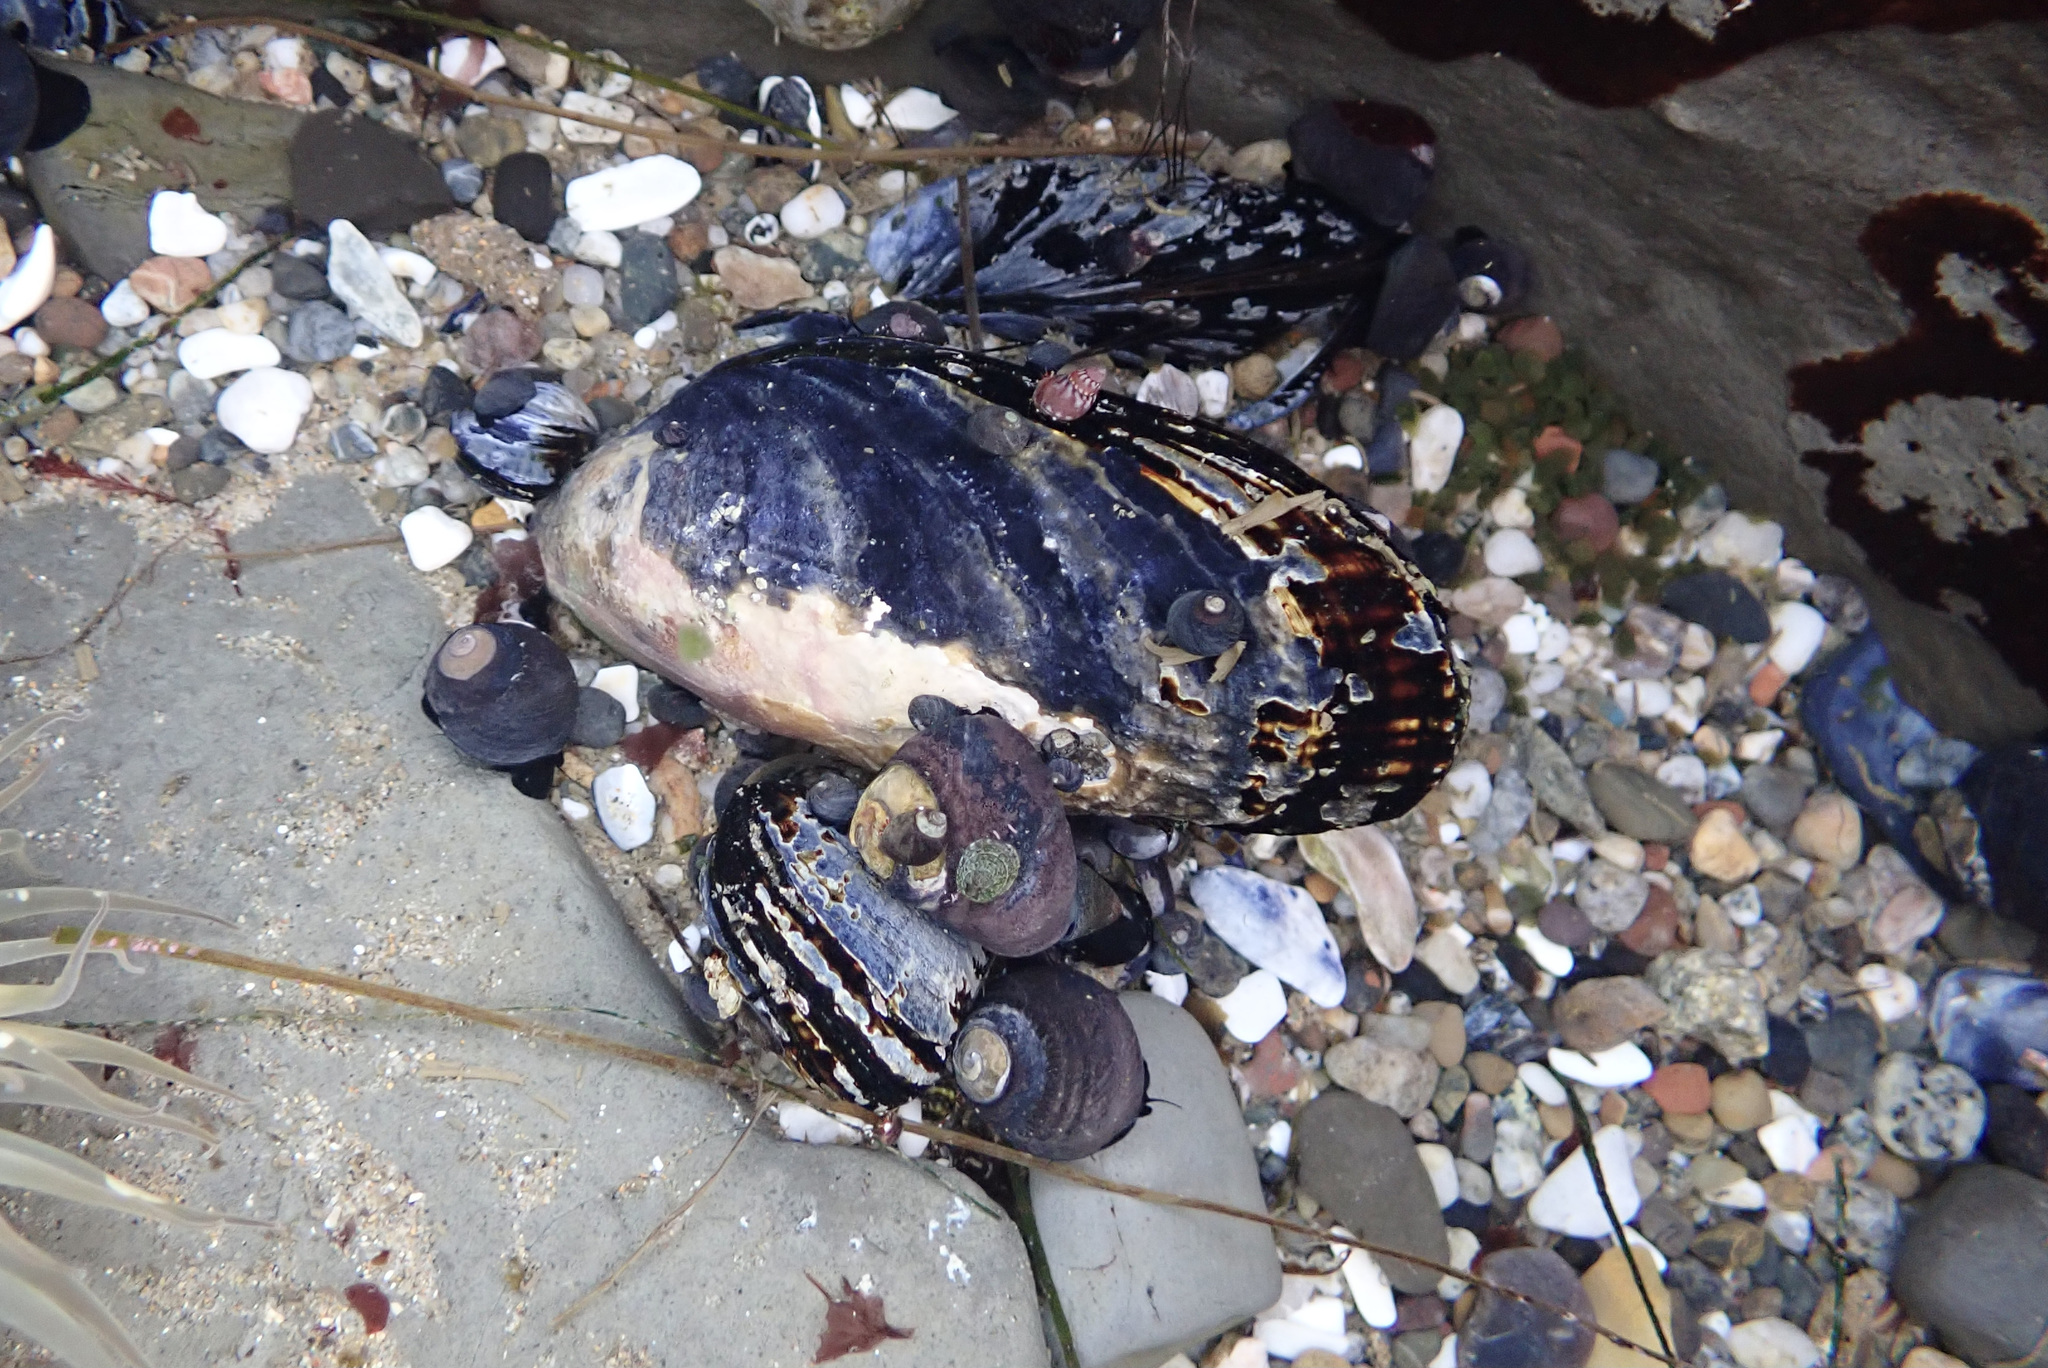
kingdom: Animalia
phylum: Mollusca
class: Bivalvia
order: Mytilida
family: Mytilidae
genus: Mytilus
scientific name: Mytilus californianus
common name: California mussel
